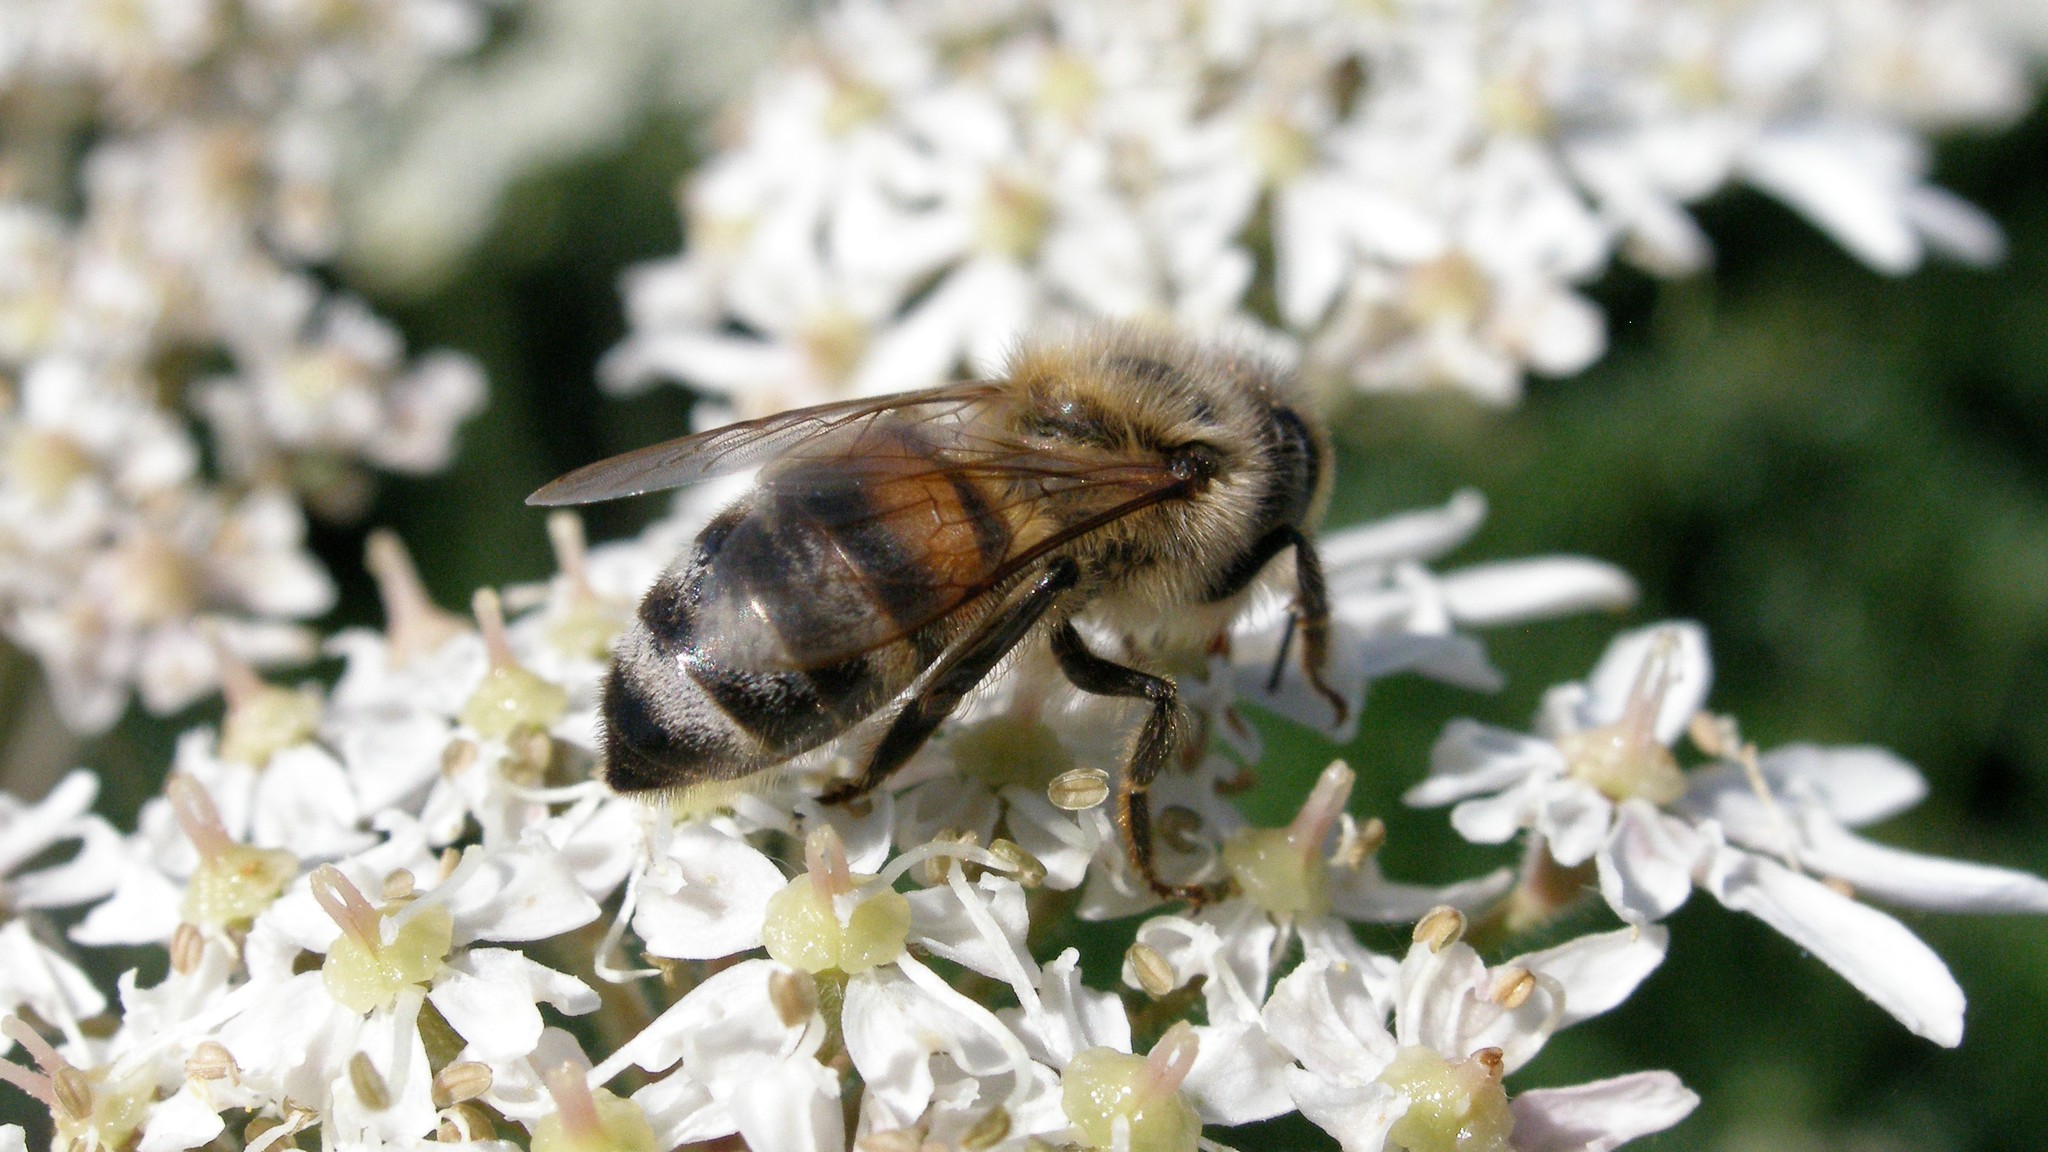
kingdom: Animalia
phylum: Arthropoda
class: Insecta
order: Hymenoptera
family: Apidae
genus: Apis
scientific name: Apis mellifera
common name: Honey bee
